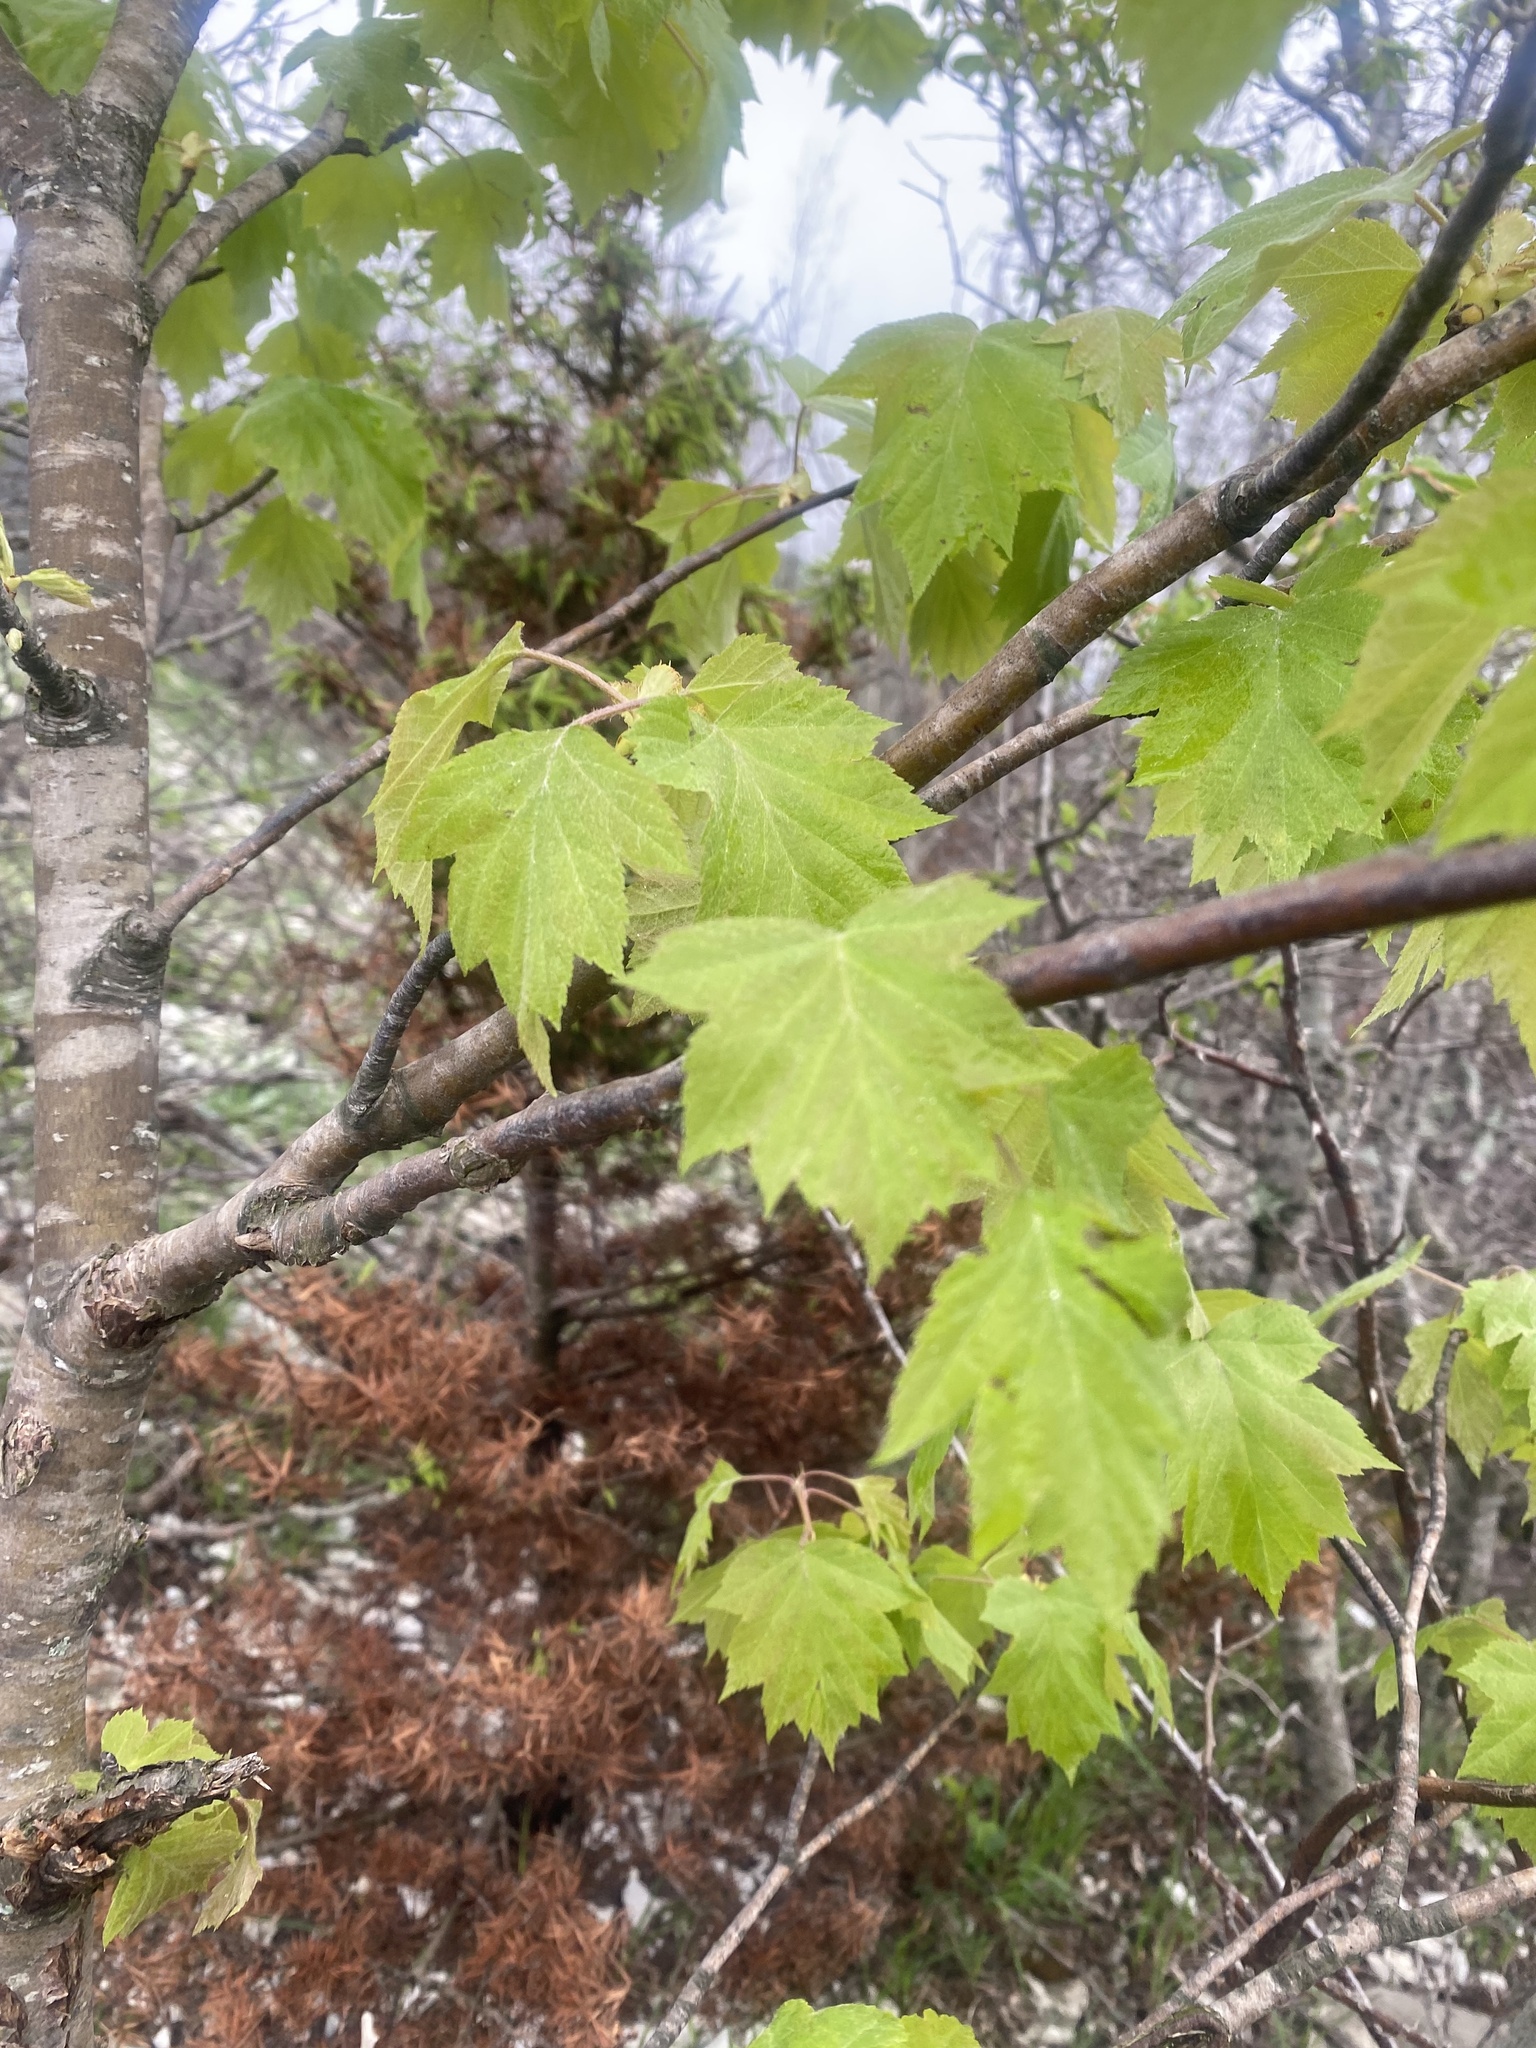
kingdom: Plantae
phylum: Tracheophyta
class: Magnoliopsida
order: Rosales
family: Rosaceae
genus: Torminalis
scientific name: Torminalis glaberrima
